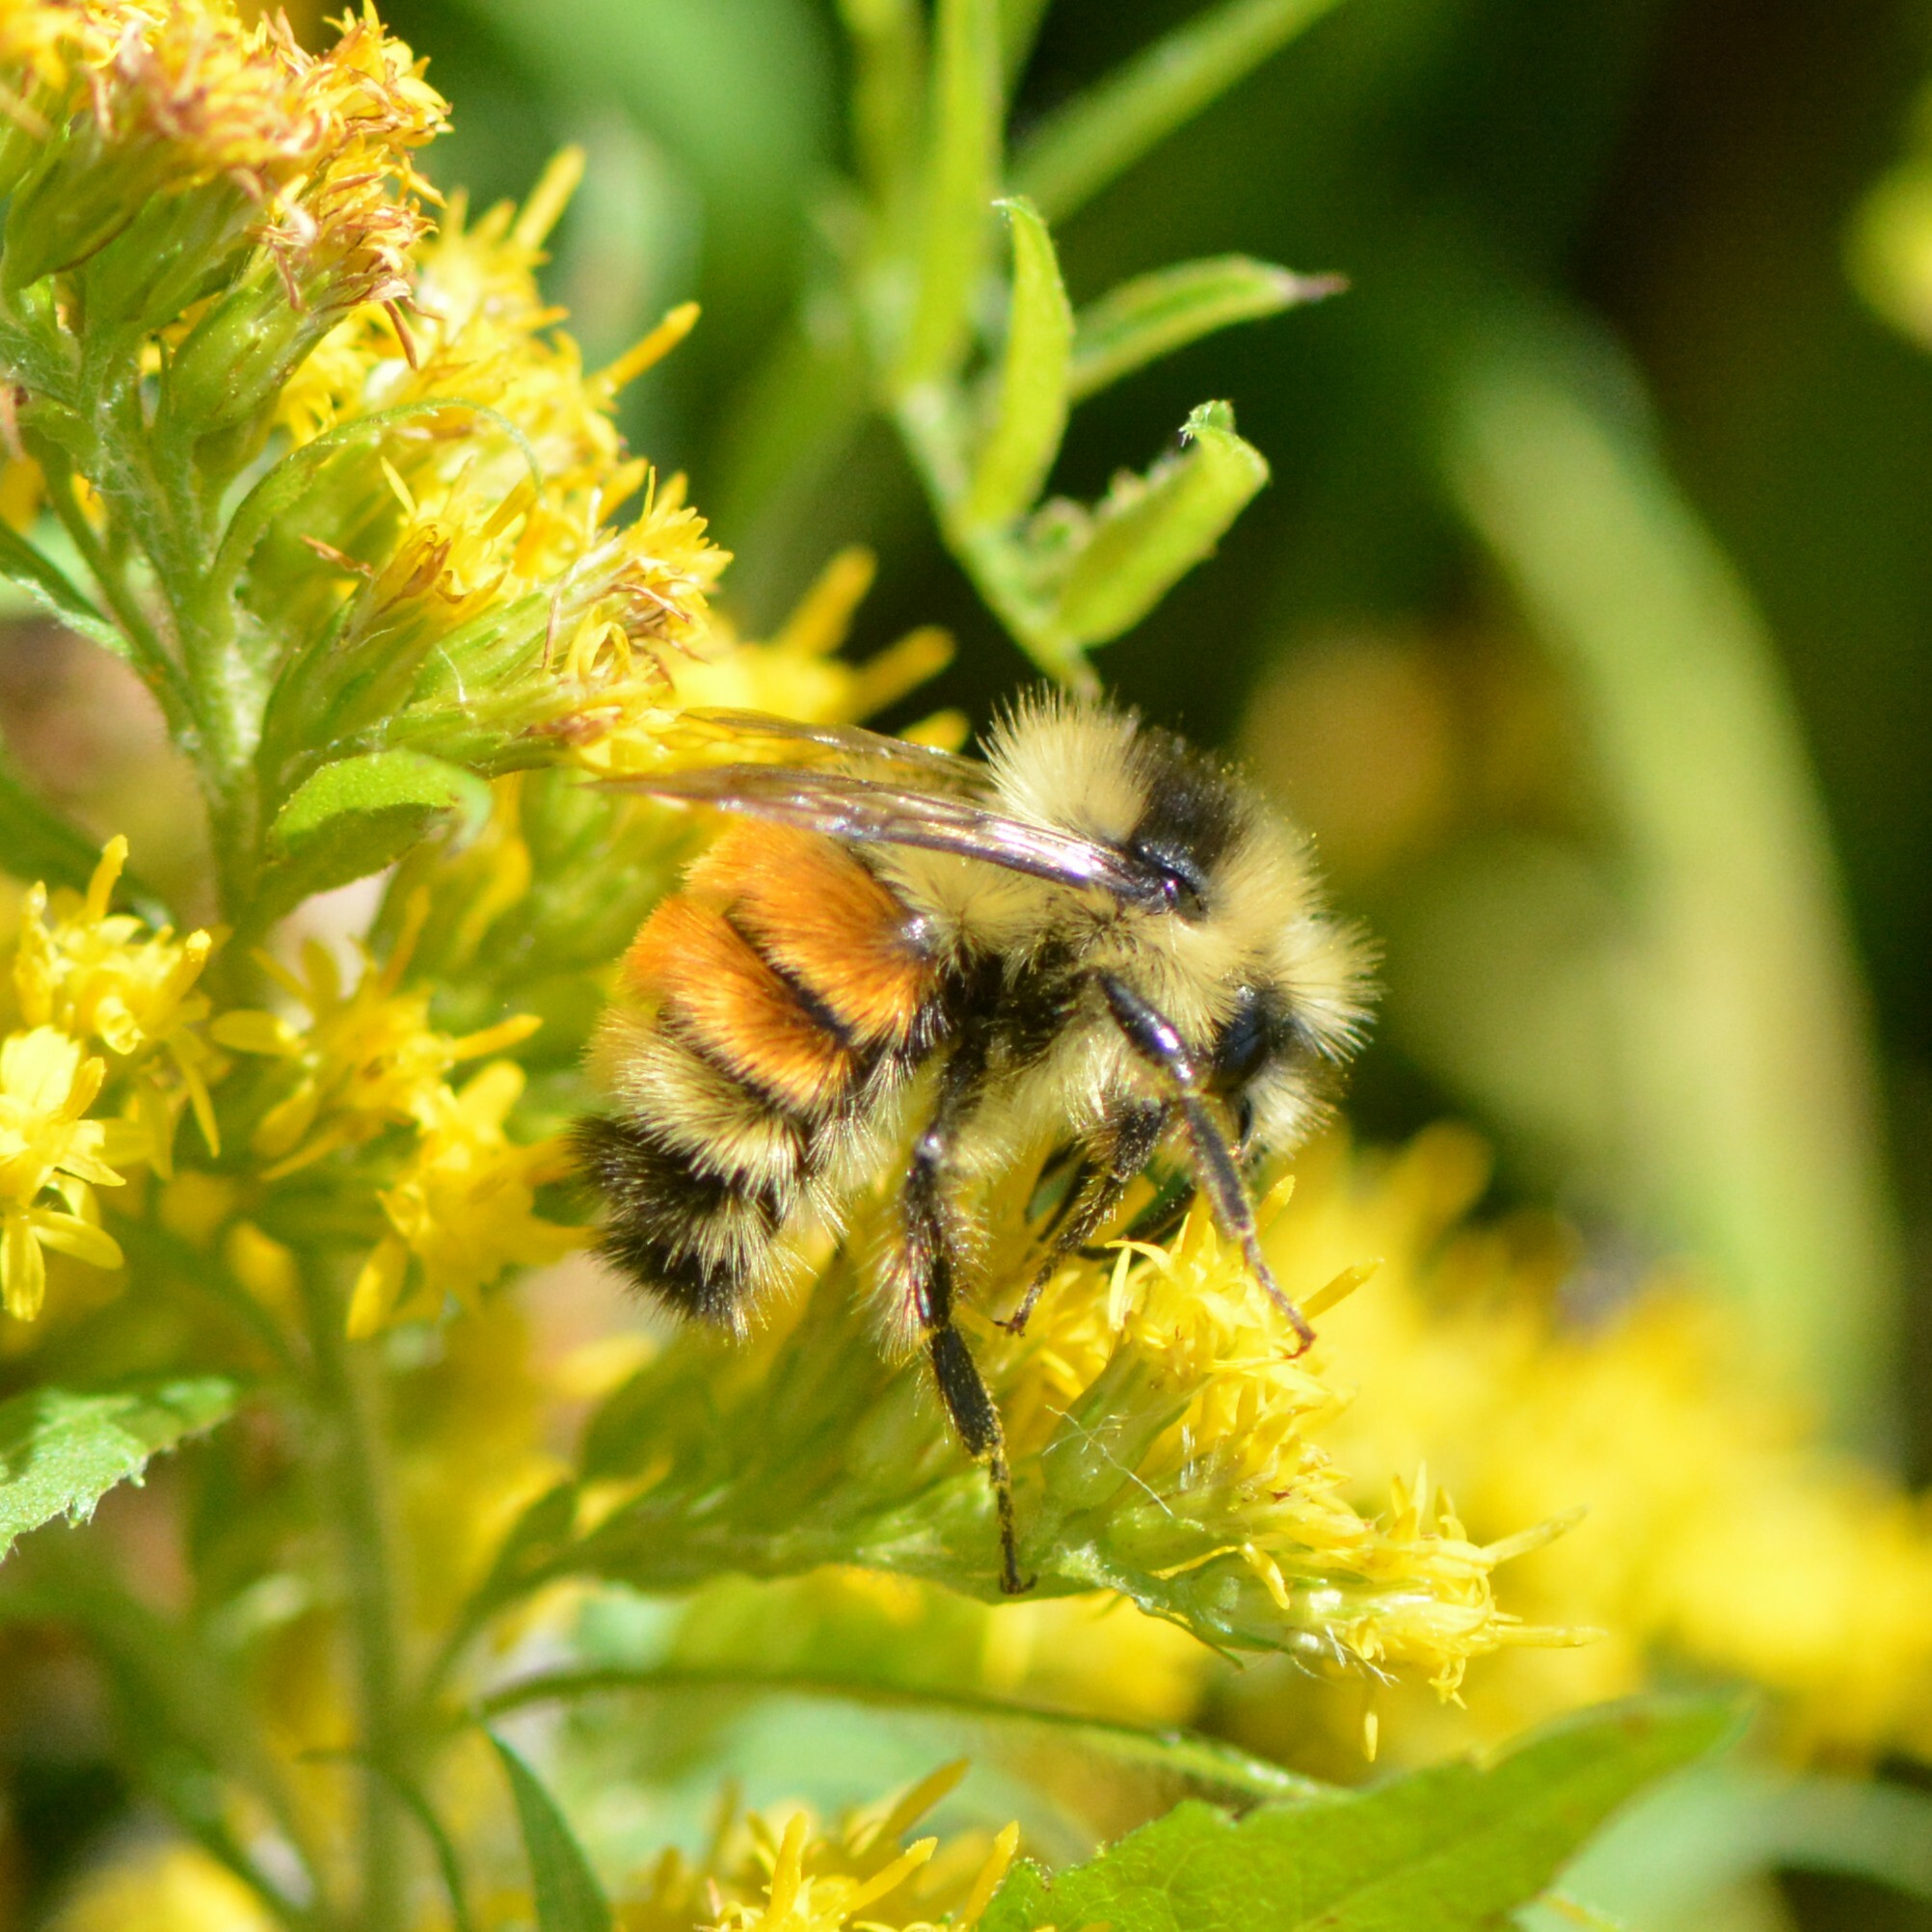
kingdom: Animalia
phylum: Arthropoda
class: Insecta
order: Hymenoptera
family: Apidae
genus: Bombus
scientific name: Bombus ternarius
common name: Tri-colored bumble bee
